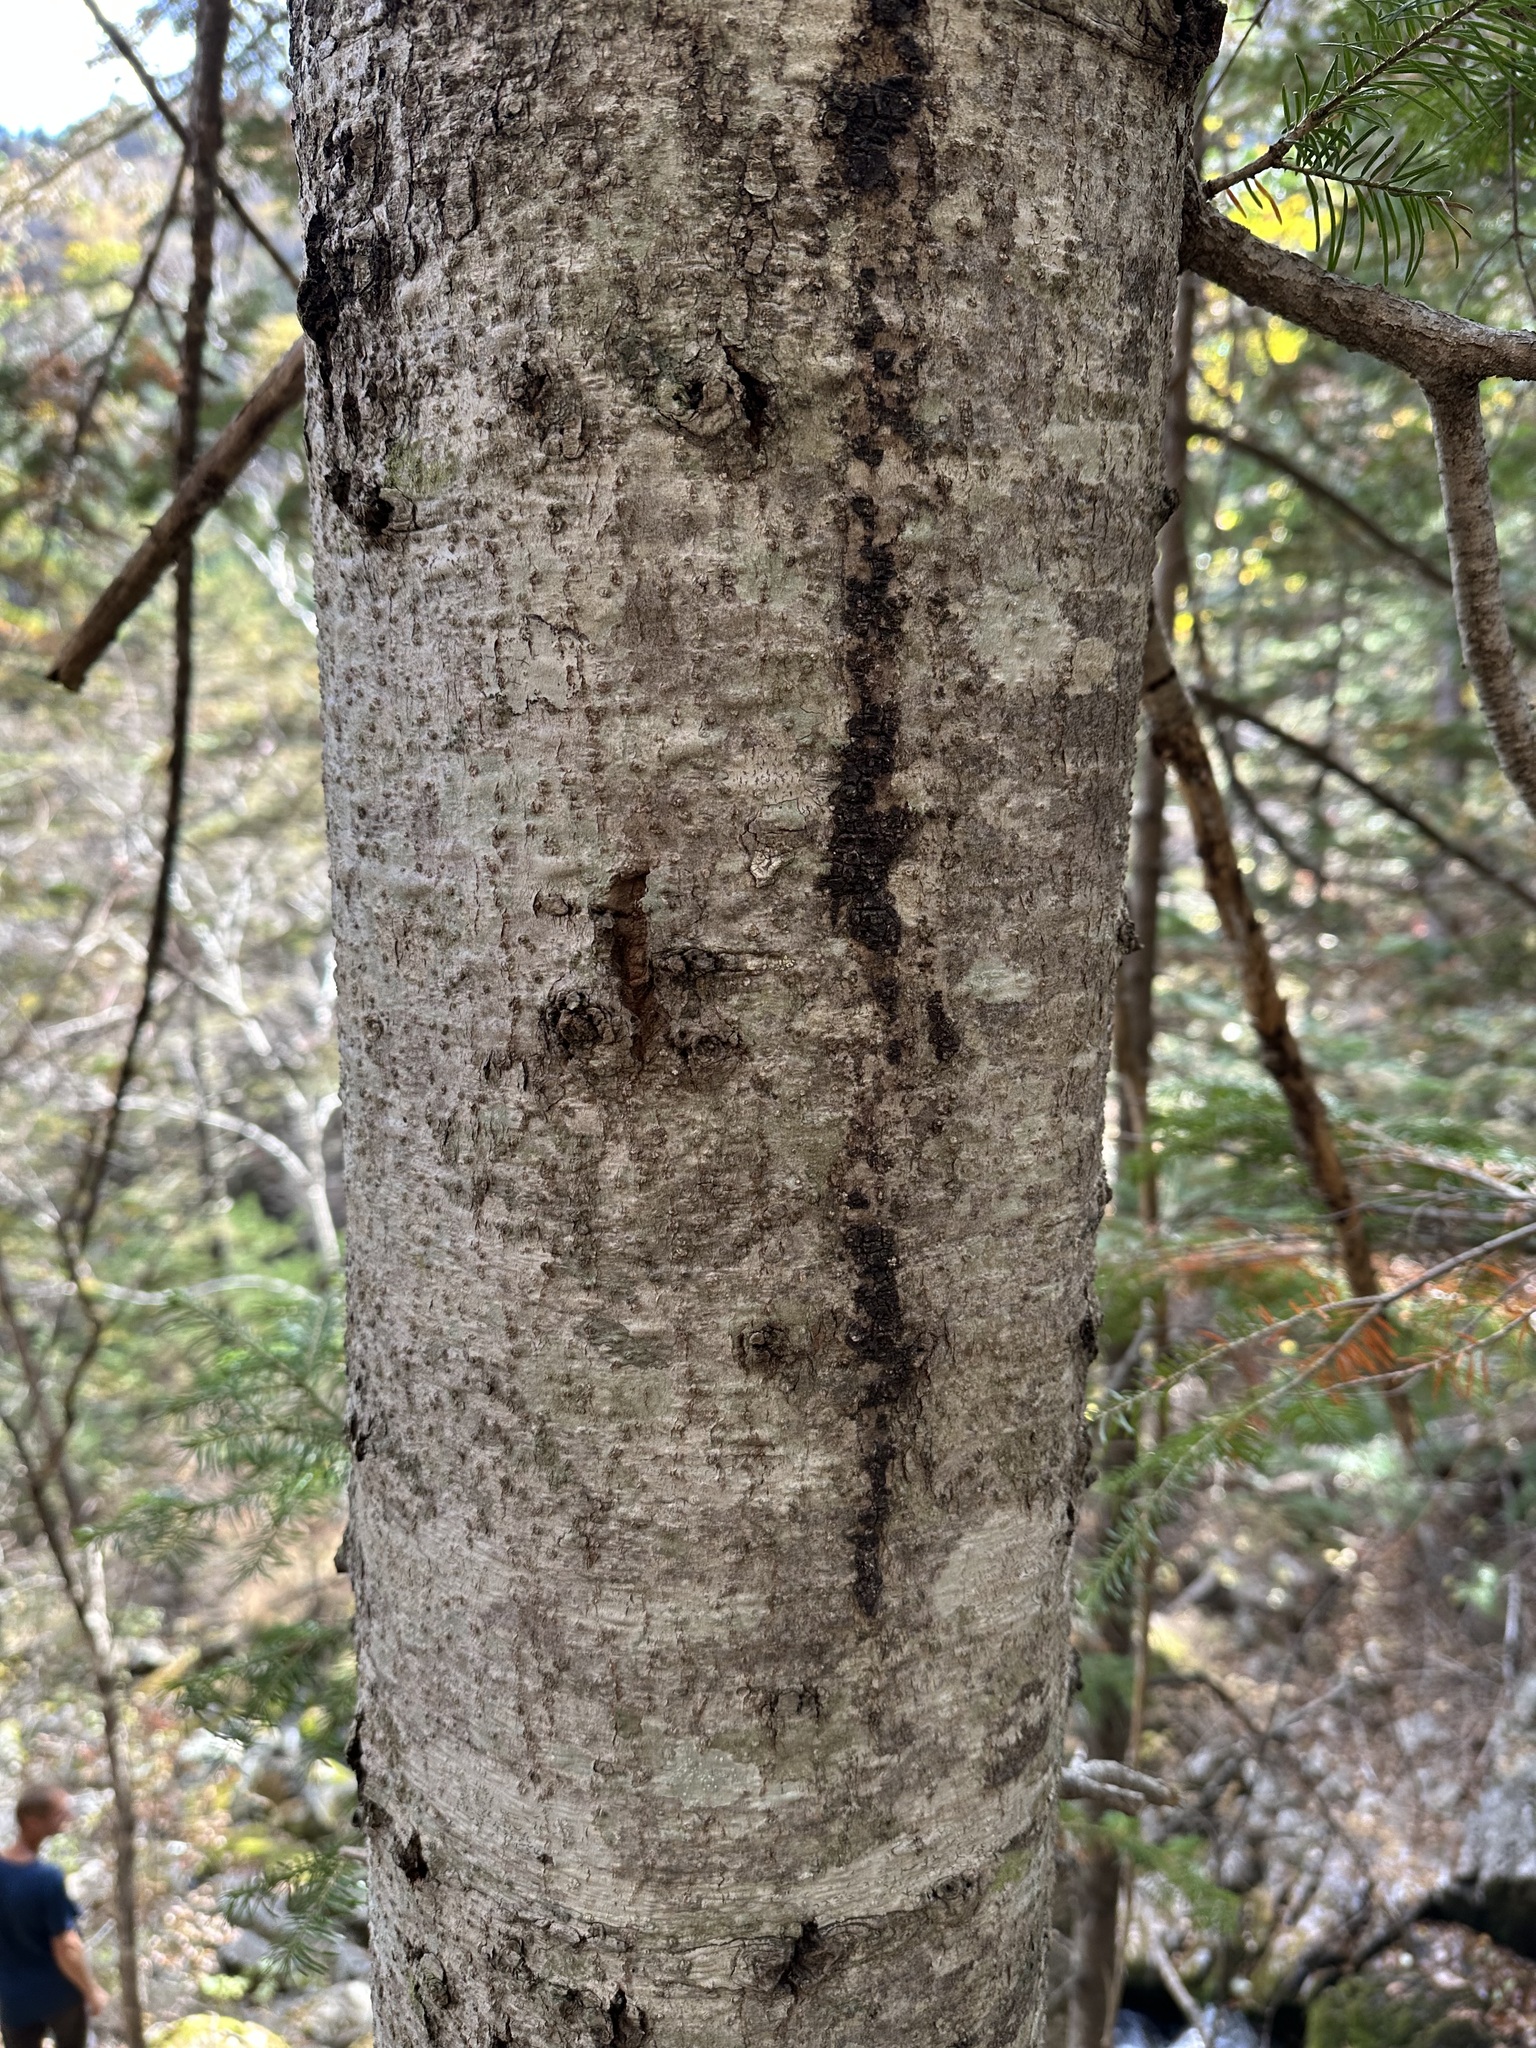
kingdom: Plantae
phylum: Tracheophyta
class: Pinopsida
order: Pinales
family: Pinaceae
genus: Abies
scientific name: Abies nephrolepis
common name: Hinggan fir
